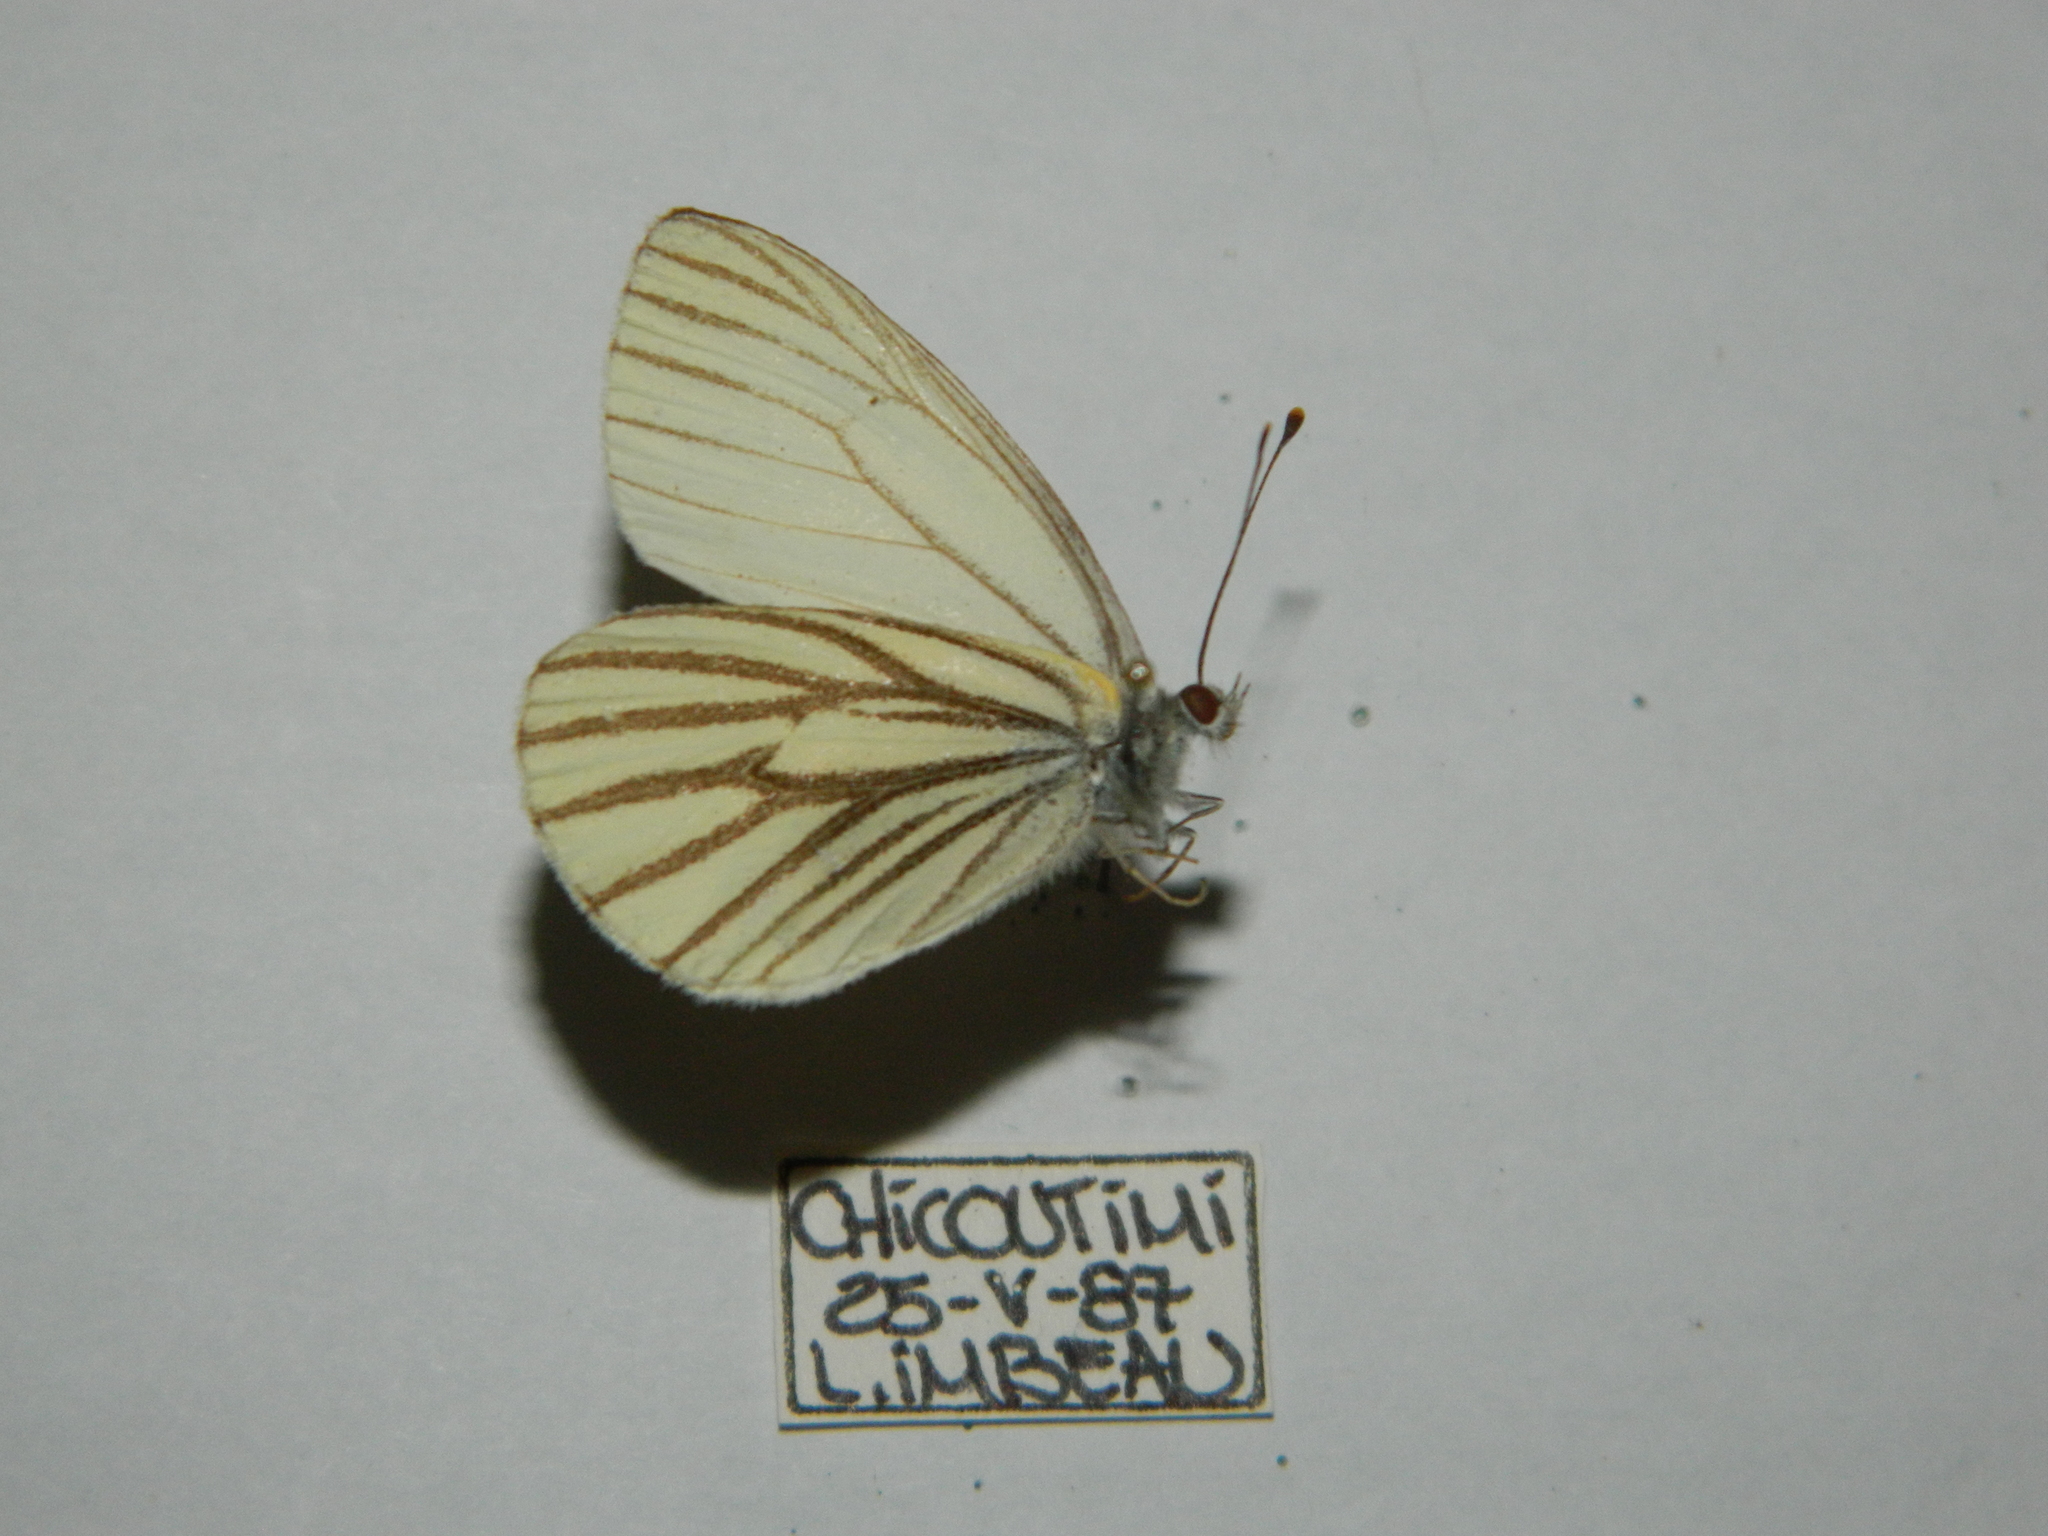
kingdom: Animalia
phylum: Arthropoda
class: Insecta
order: Lepidoptera
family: Pieridae
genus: Pieris
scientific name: Pieris oleracea
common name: Mustard white
